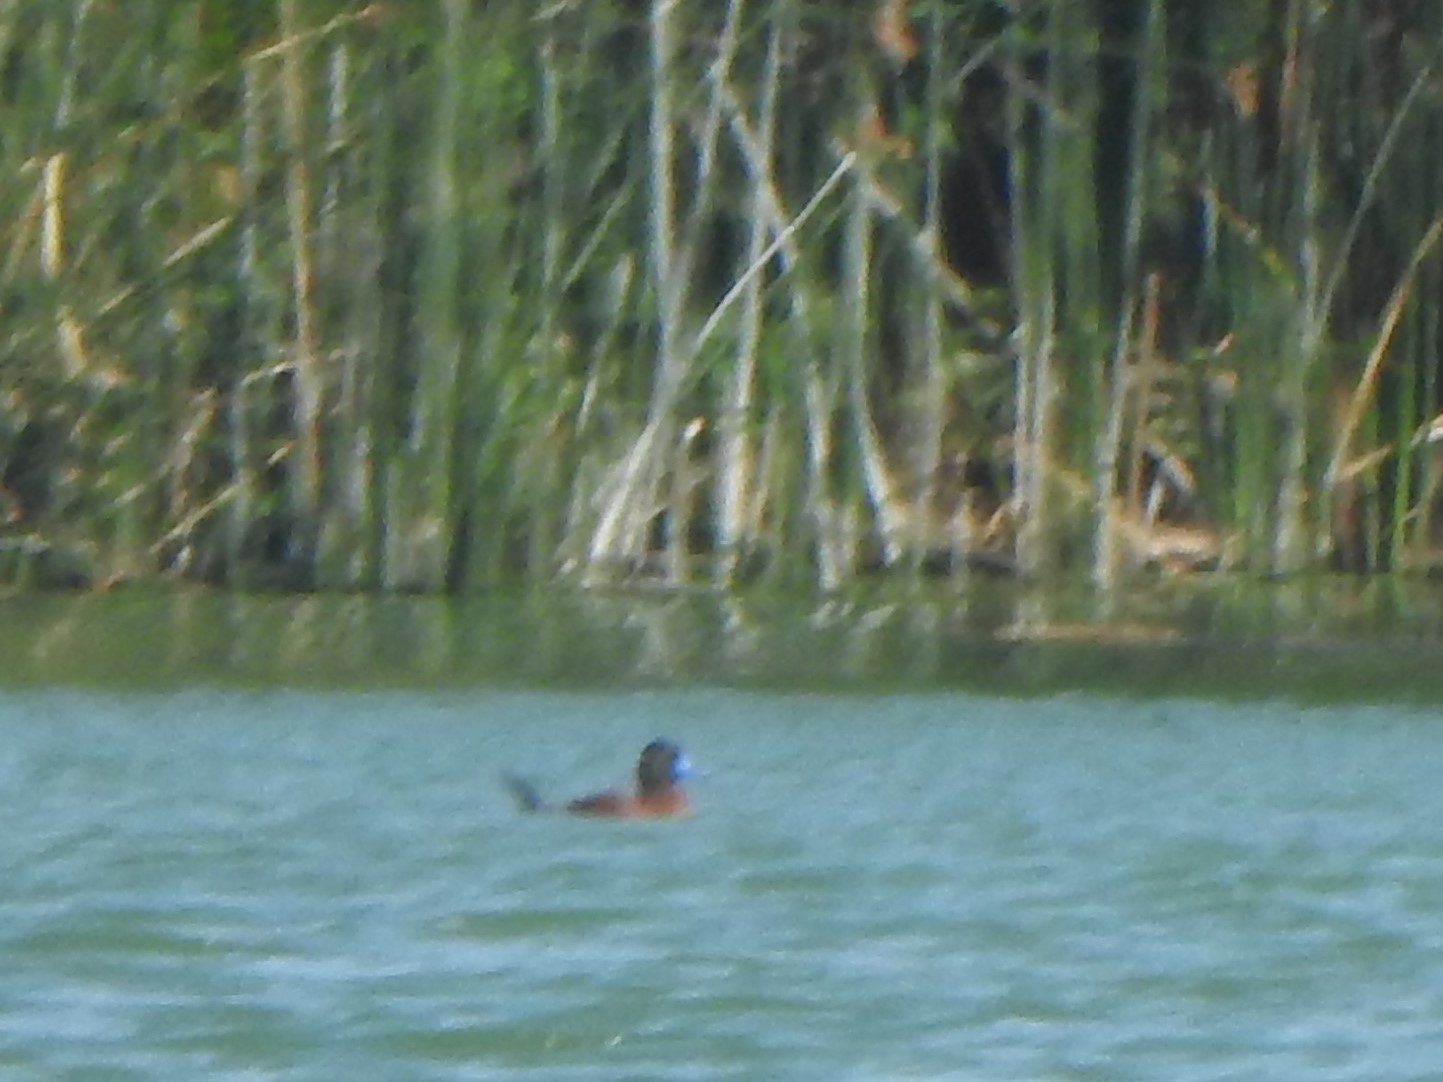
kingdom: Animalia
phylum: Chordata
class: Aves
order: Anseriformes
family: Anatidae
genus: Oxyura
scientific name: Oxyura vittata
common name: Lake duck
